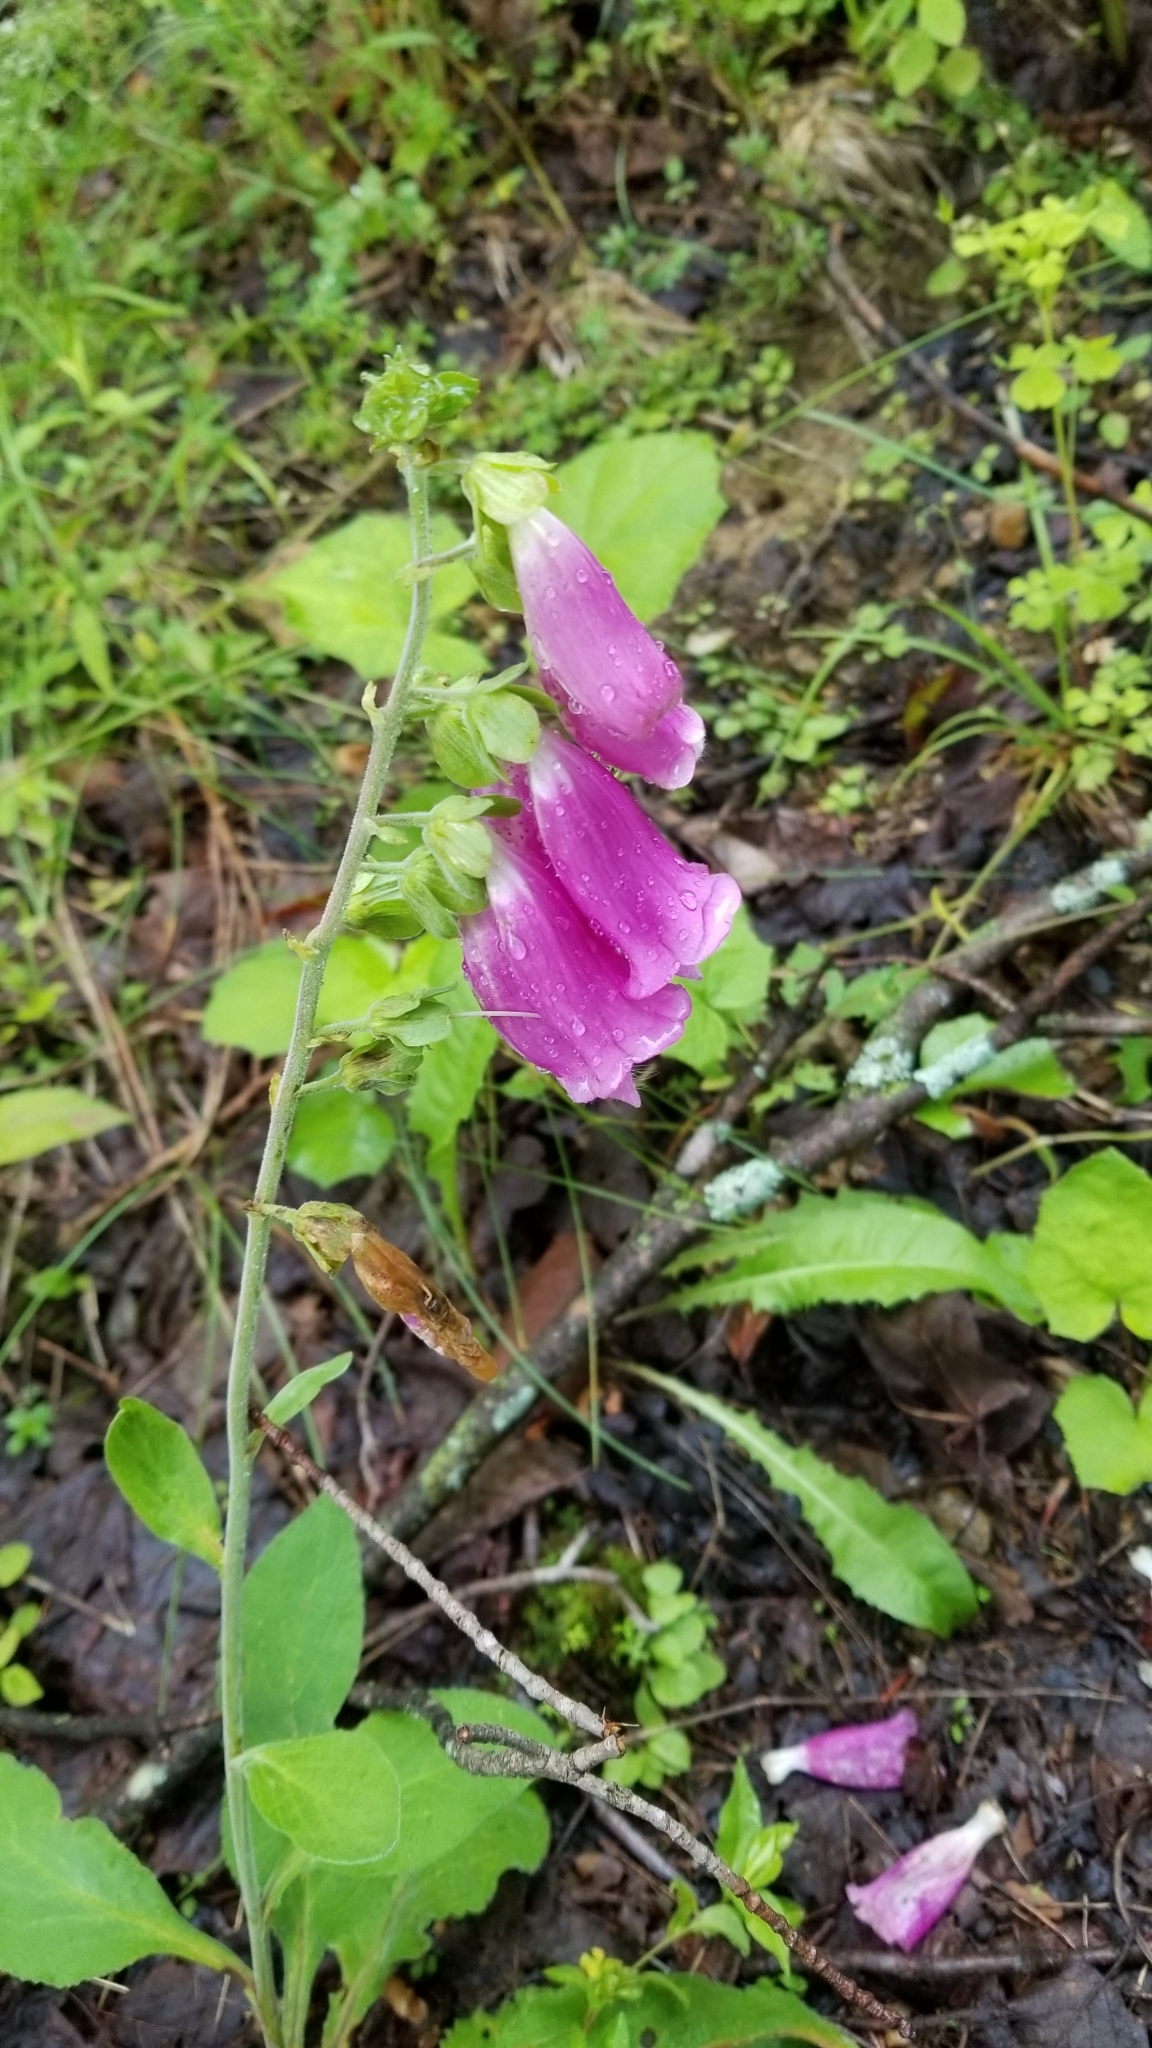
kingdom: Plantae
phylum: Tracheophyta
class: Magnoliopsida
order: Lamiales
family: Plantaginaceae
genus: Digitalis
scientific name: Digitalis purpurea
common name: Foxglove
